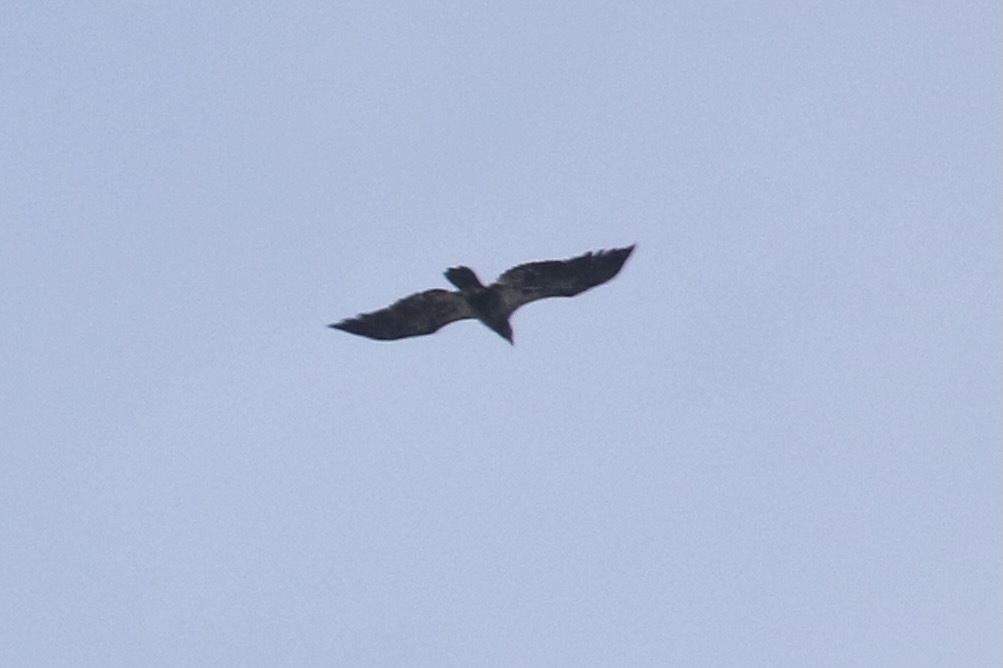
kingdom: Animalia
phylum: Chordata
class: Aves
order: Accipitriformes
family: Accipitridae
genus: Haliaeetus
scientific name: Haliaeetus leucocephalus
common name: Bald eagle
